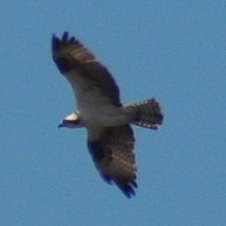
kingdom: Animalia
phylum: Chordata
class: Aves
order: Accipitriformes
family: Pandionidae
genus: Pandion
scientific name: Pandion haliaetus
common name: Osprey
